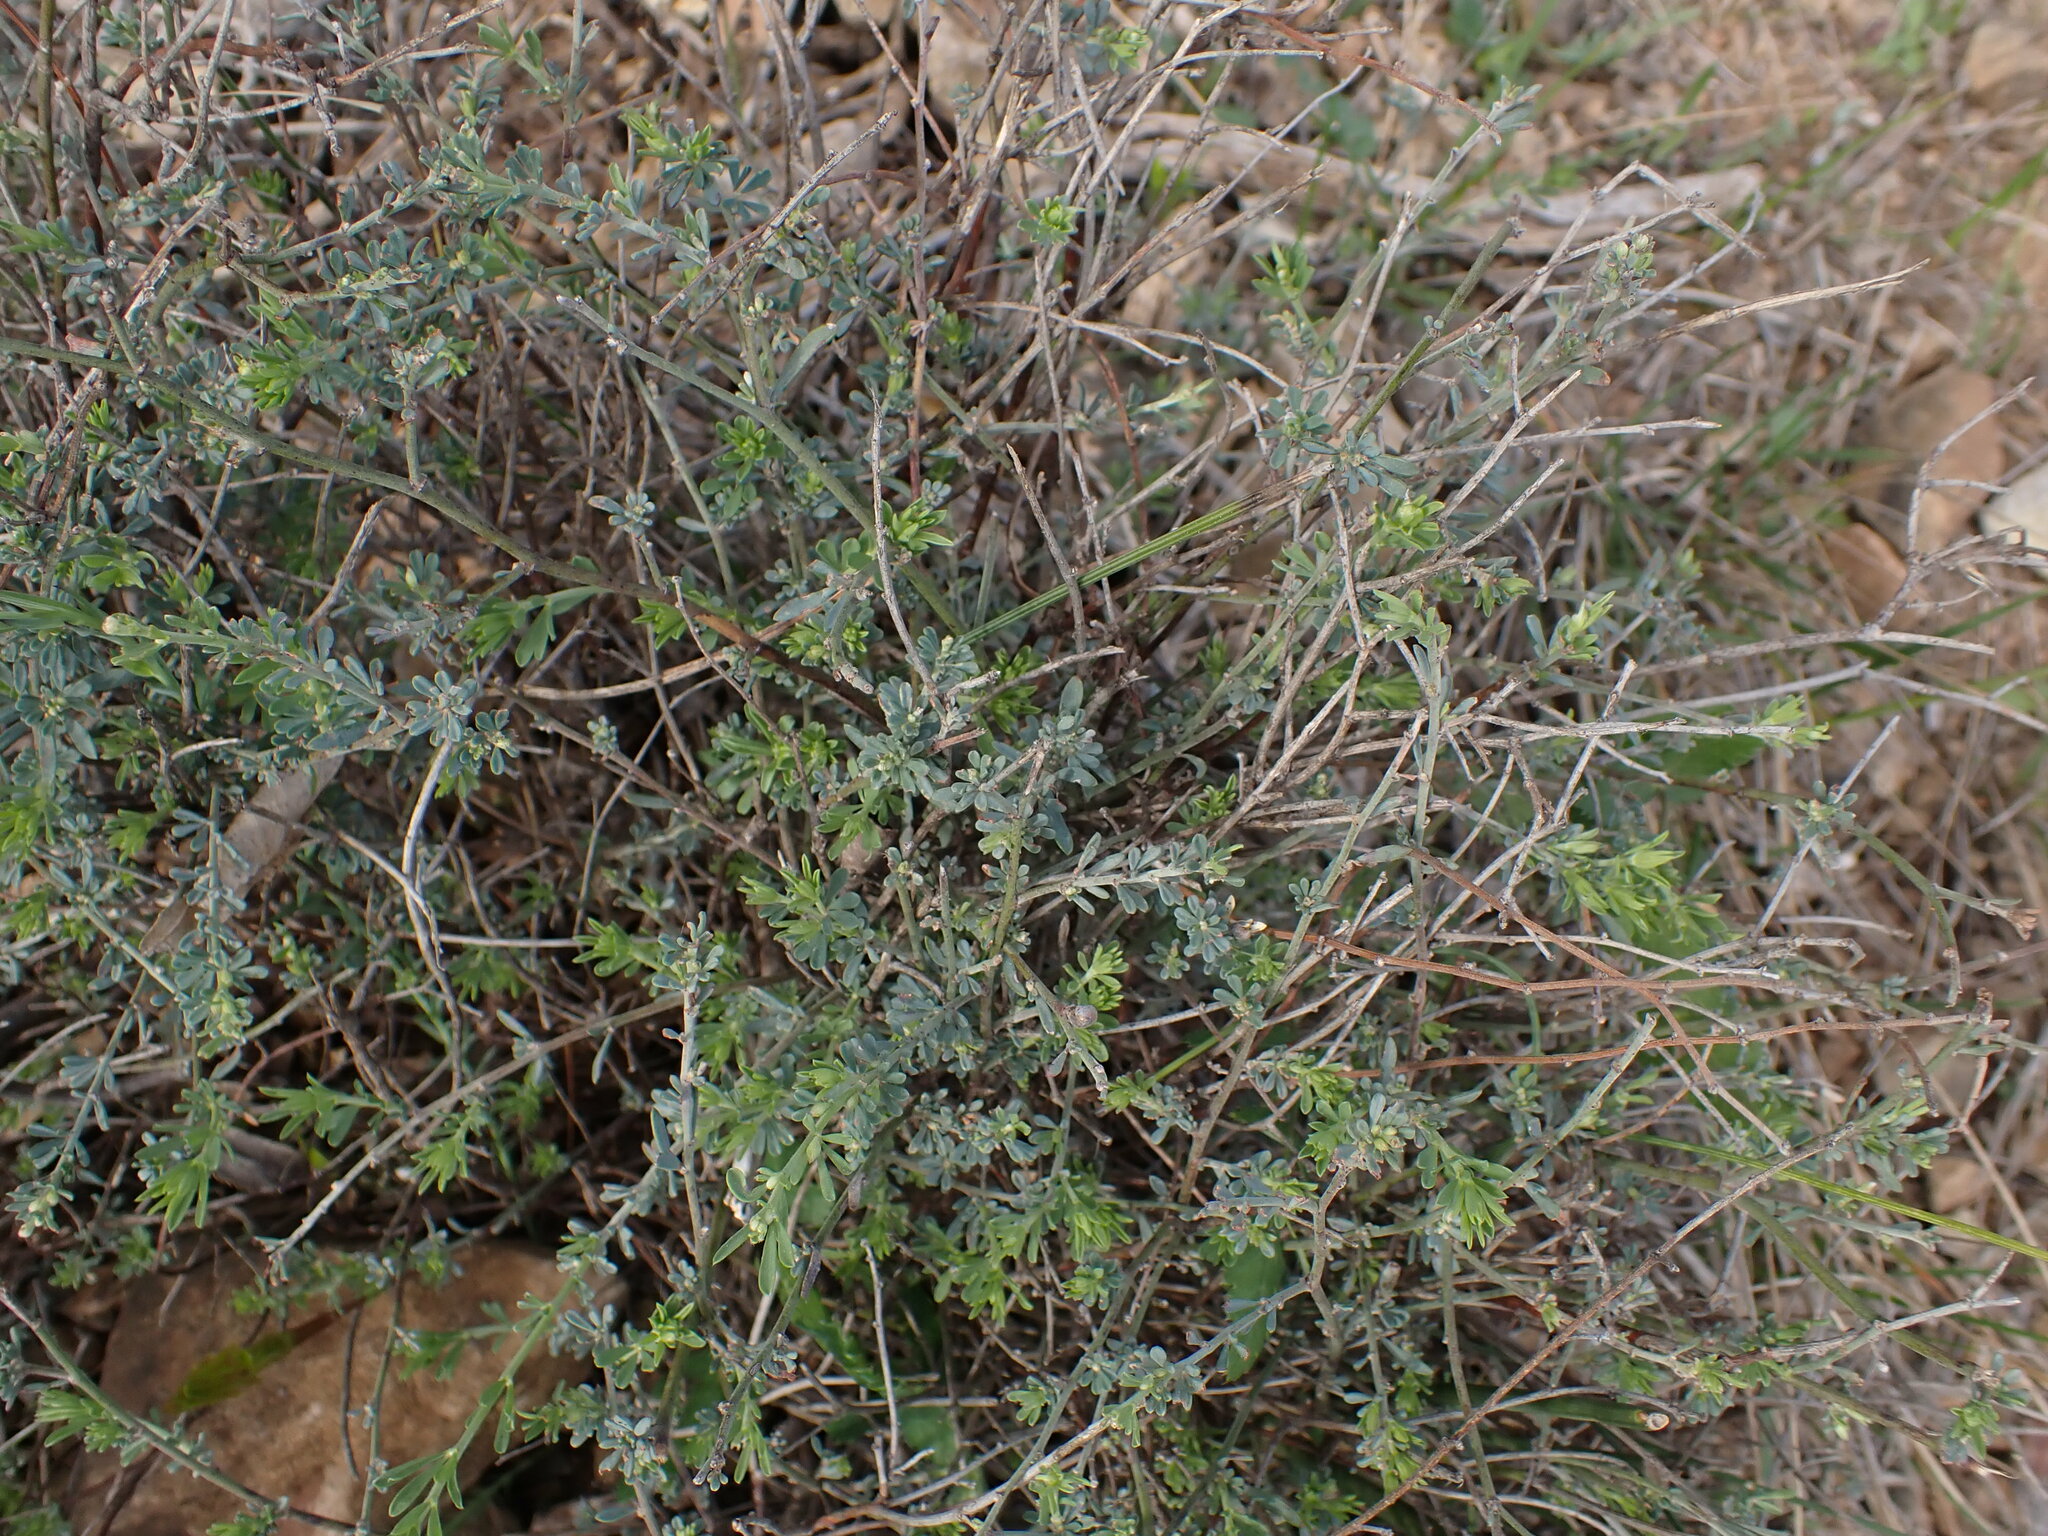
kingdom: Plantae
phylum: Tracheophyta
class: Magnoliopsida
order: Fabales
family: Fabaceae
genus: Lotus
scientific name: Lotus dorycnium
